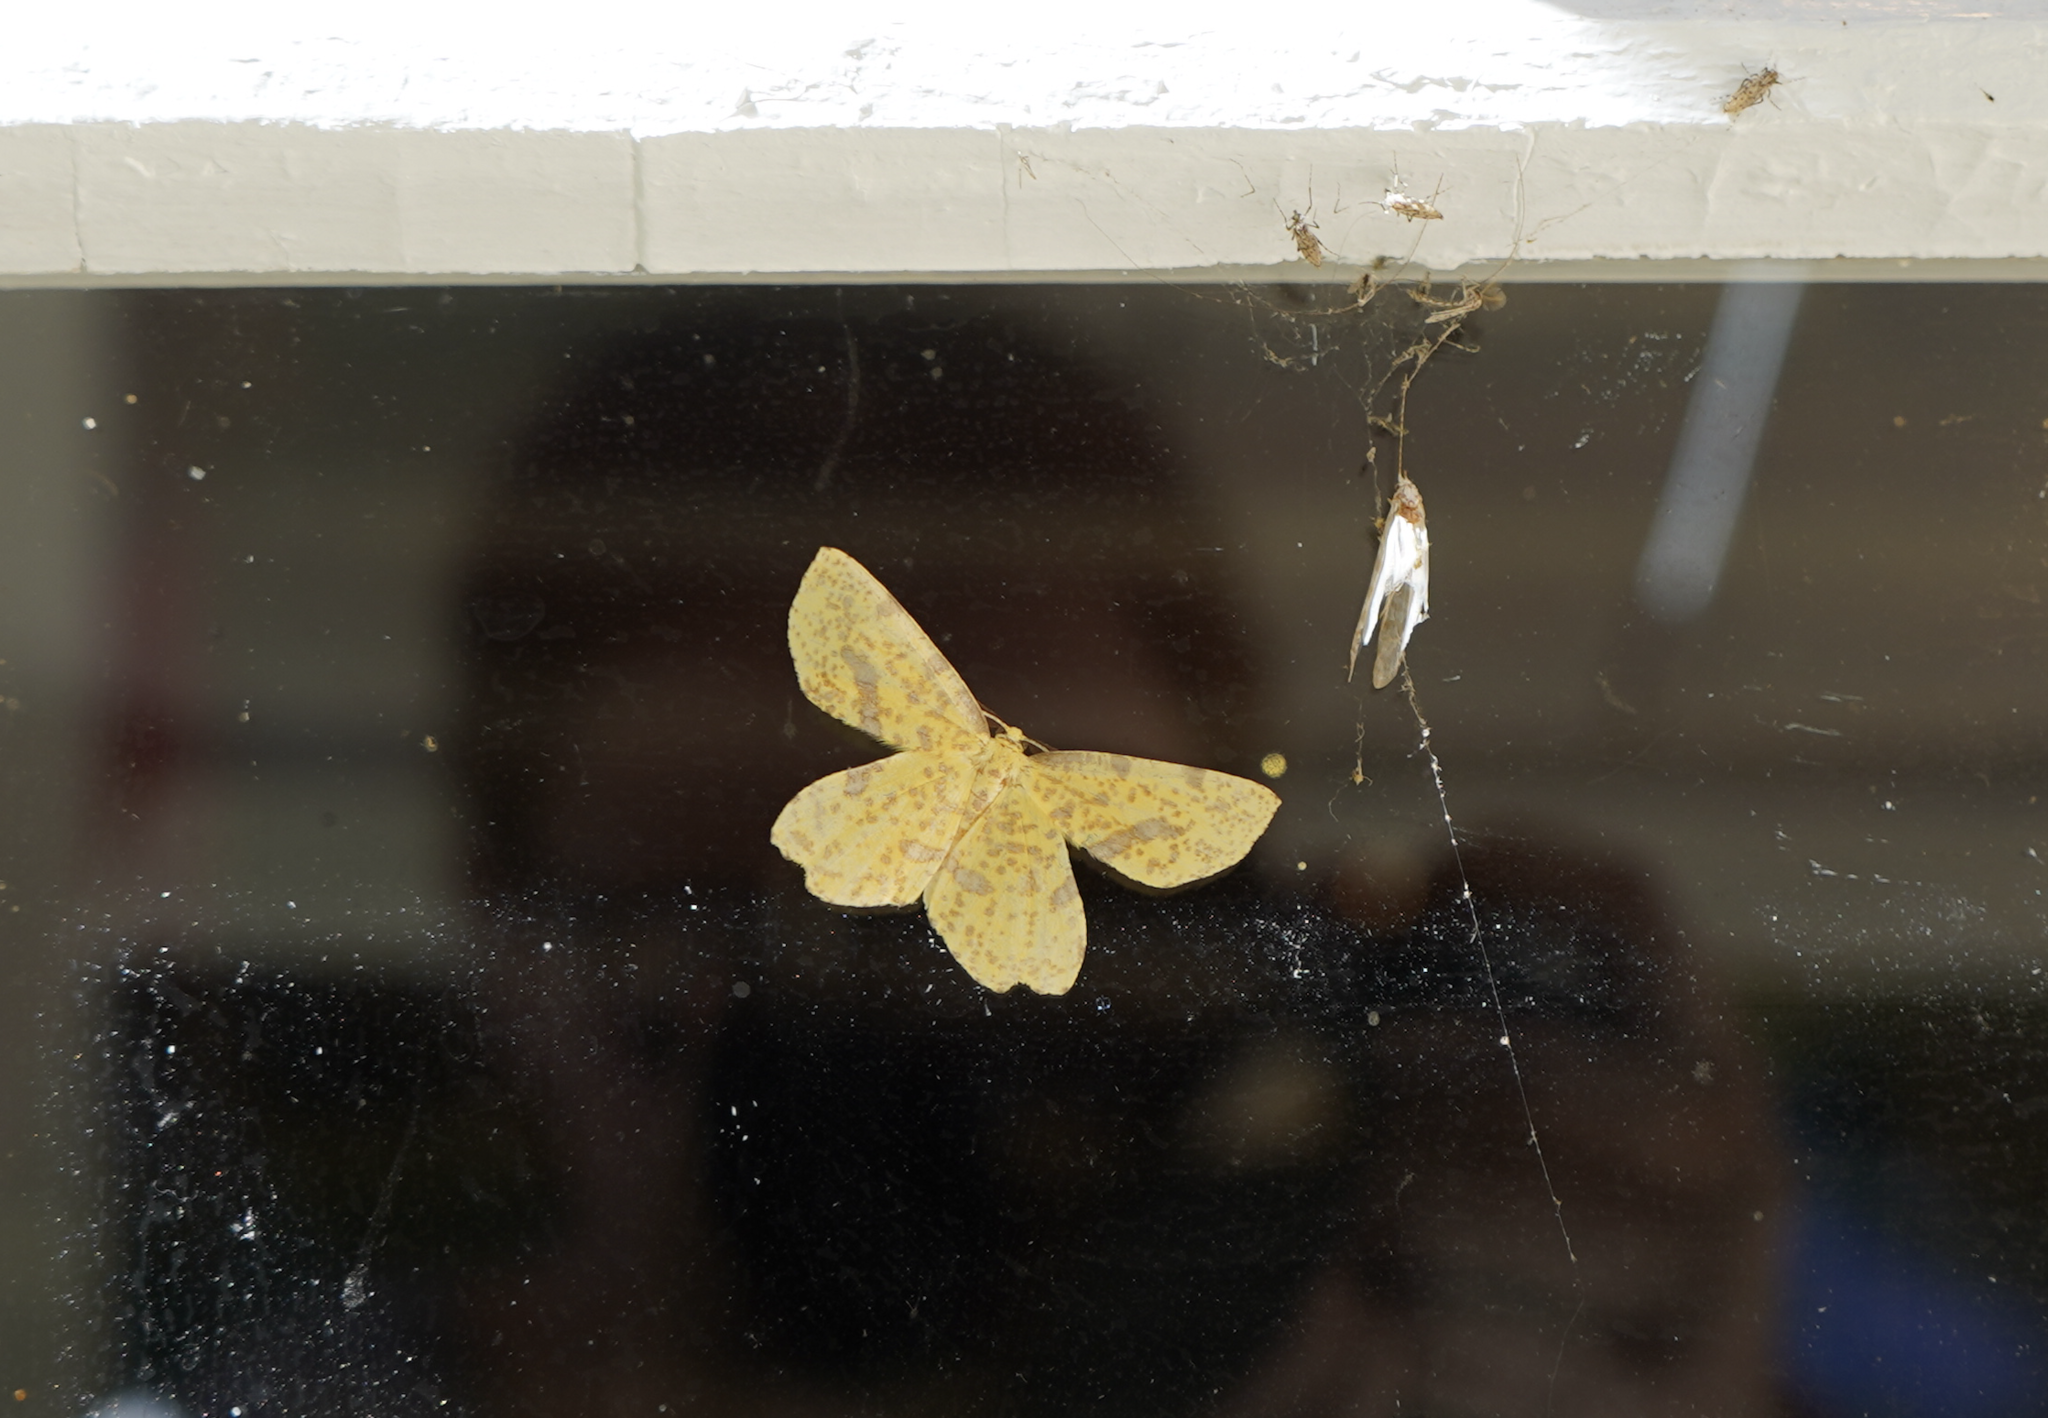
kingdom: Animalia
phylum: Arthropoda
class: Insecta
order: Lepidoptera
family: Geometridae
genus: Xanthotype
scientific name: Xanthotype
